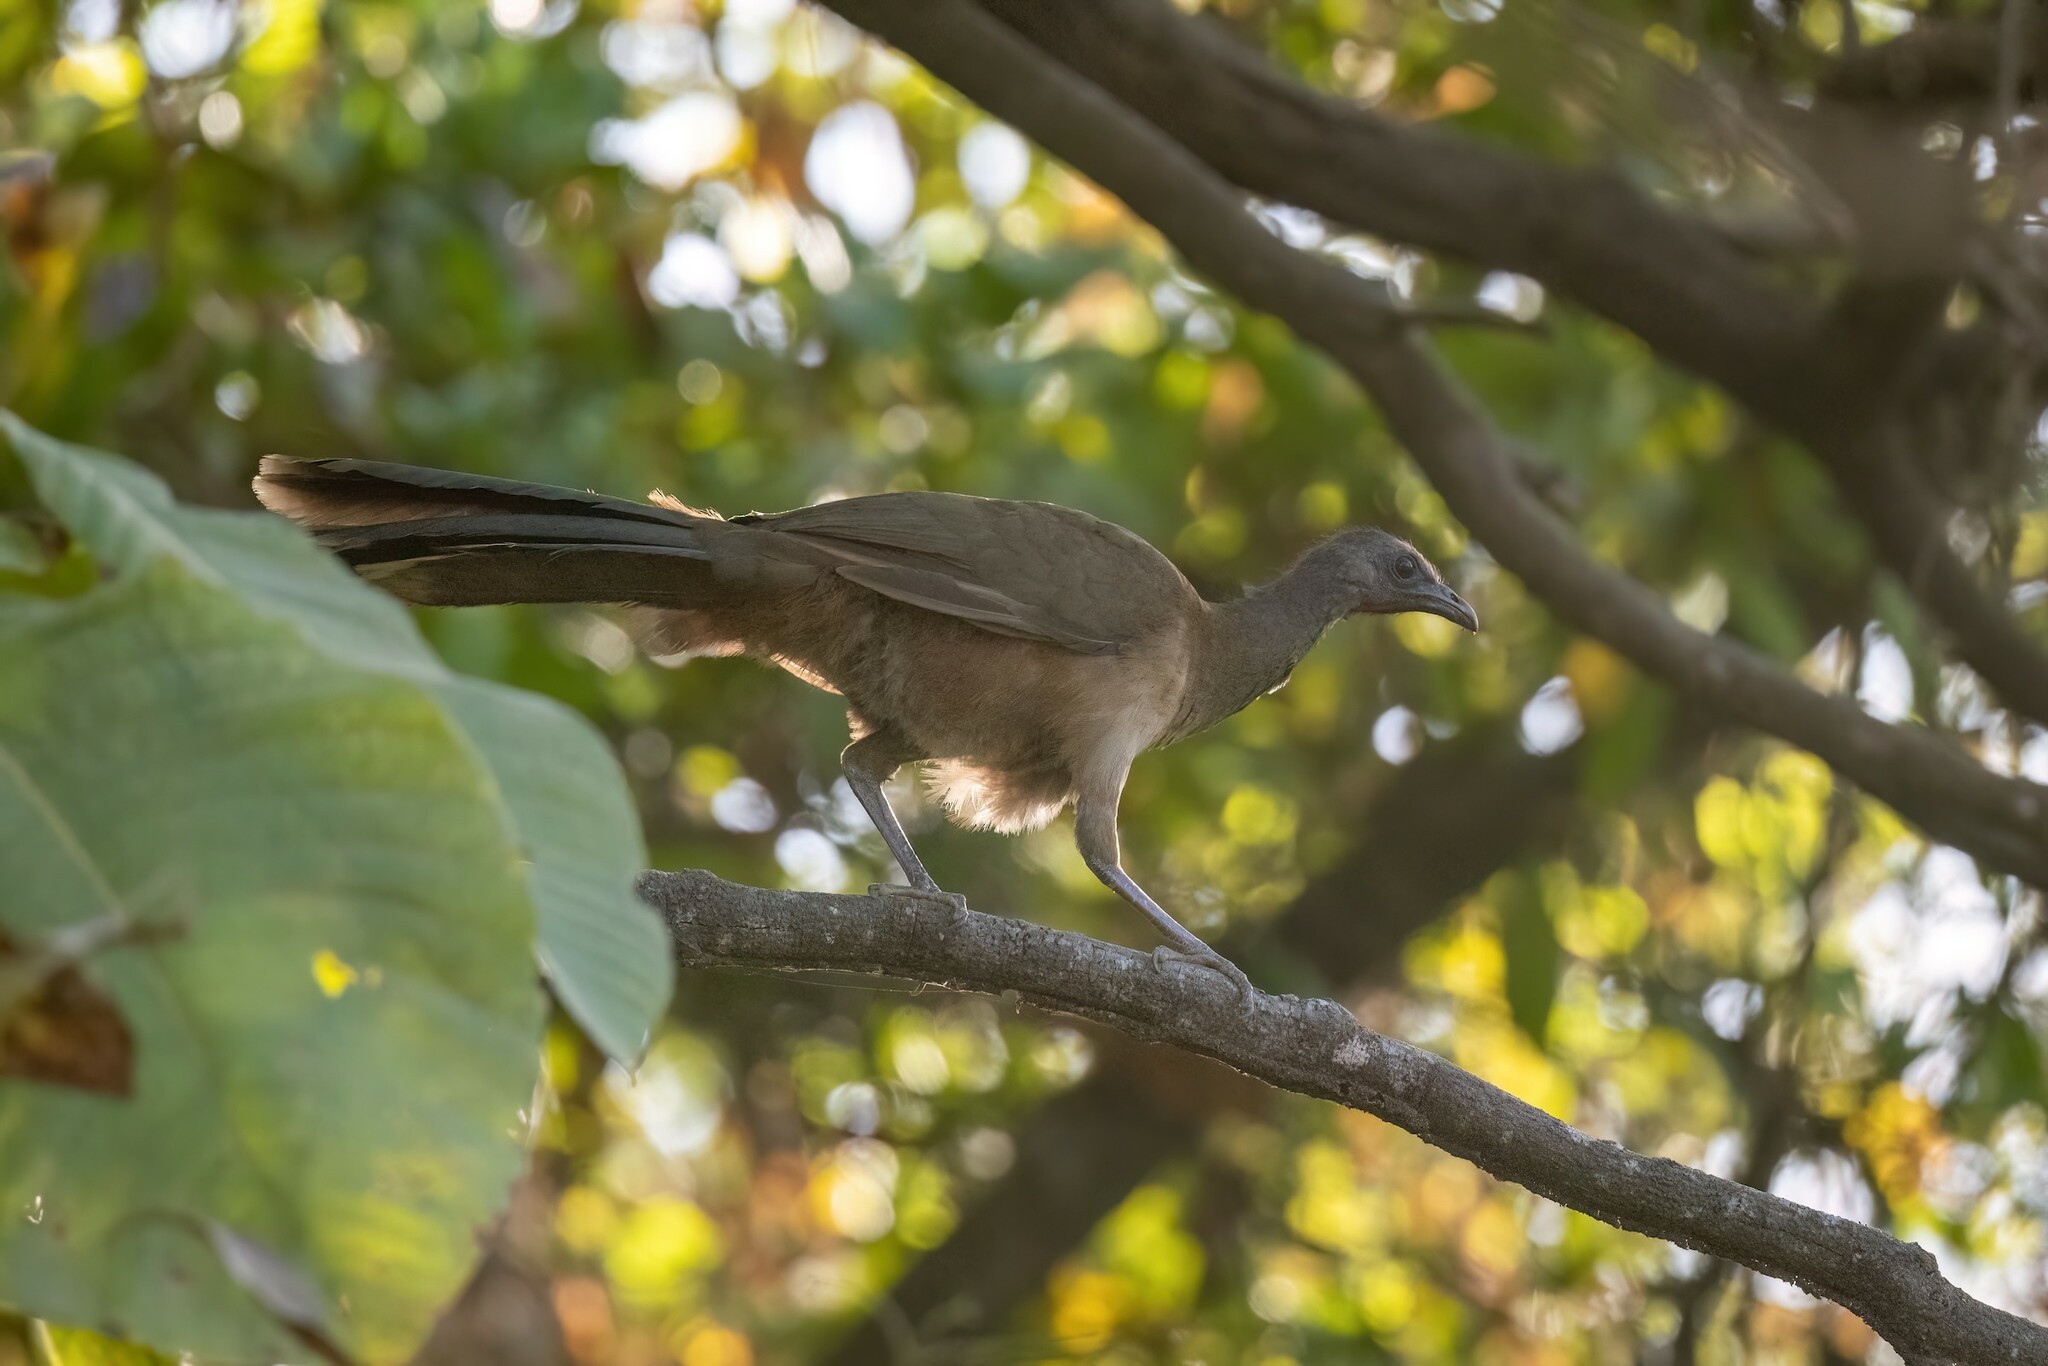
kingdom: Animalia
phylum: Chordata
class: Aves
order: Galliformes
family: Cracidae
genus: Ortalis
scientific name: Ortalis vetula
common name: Plain chachalaca
